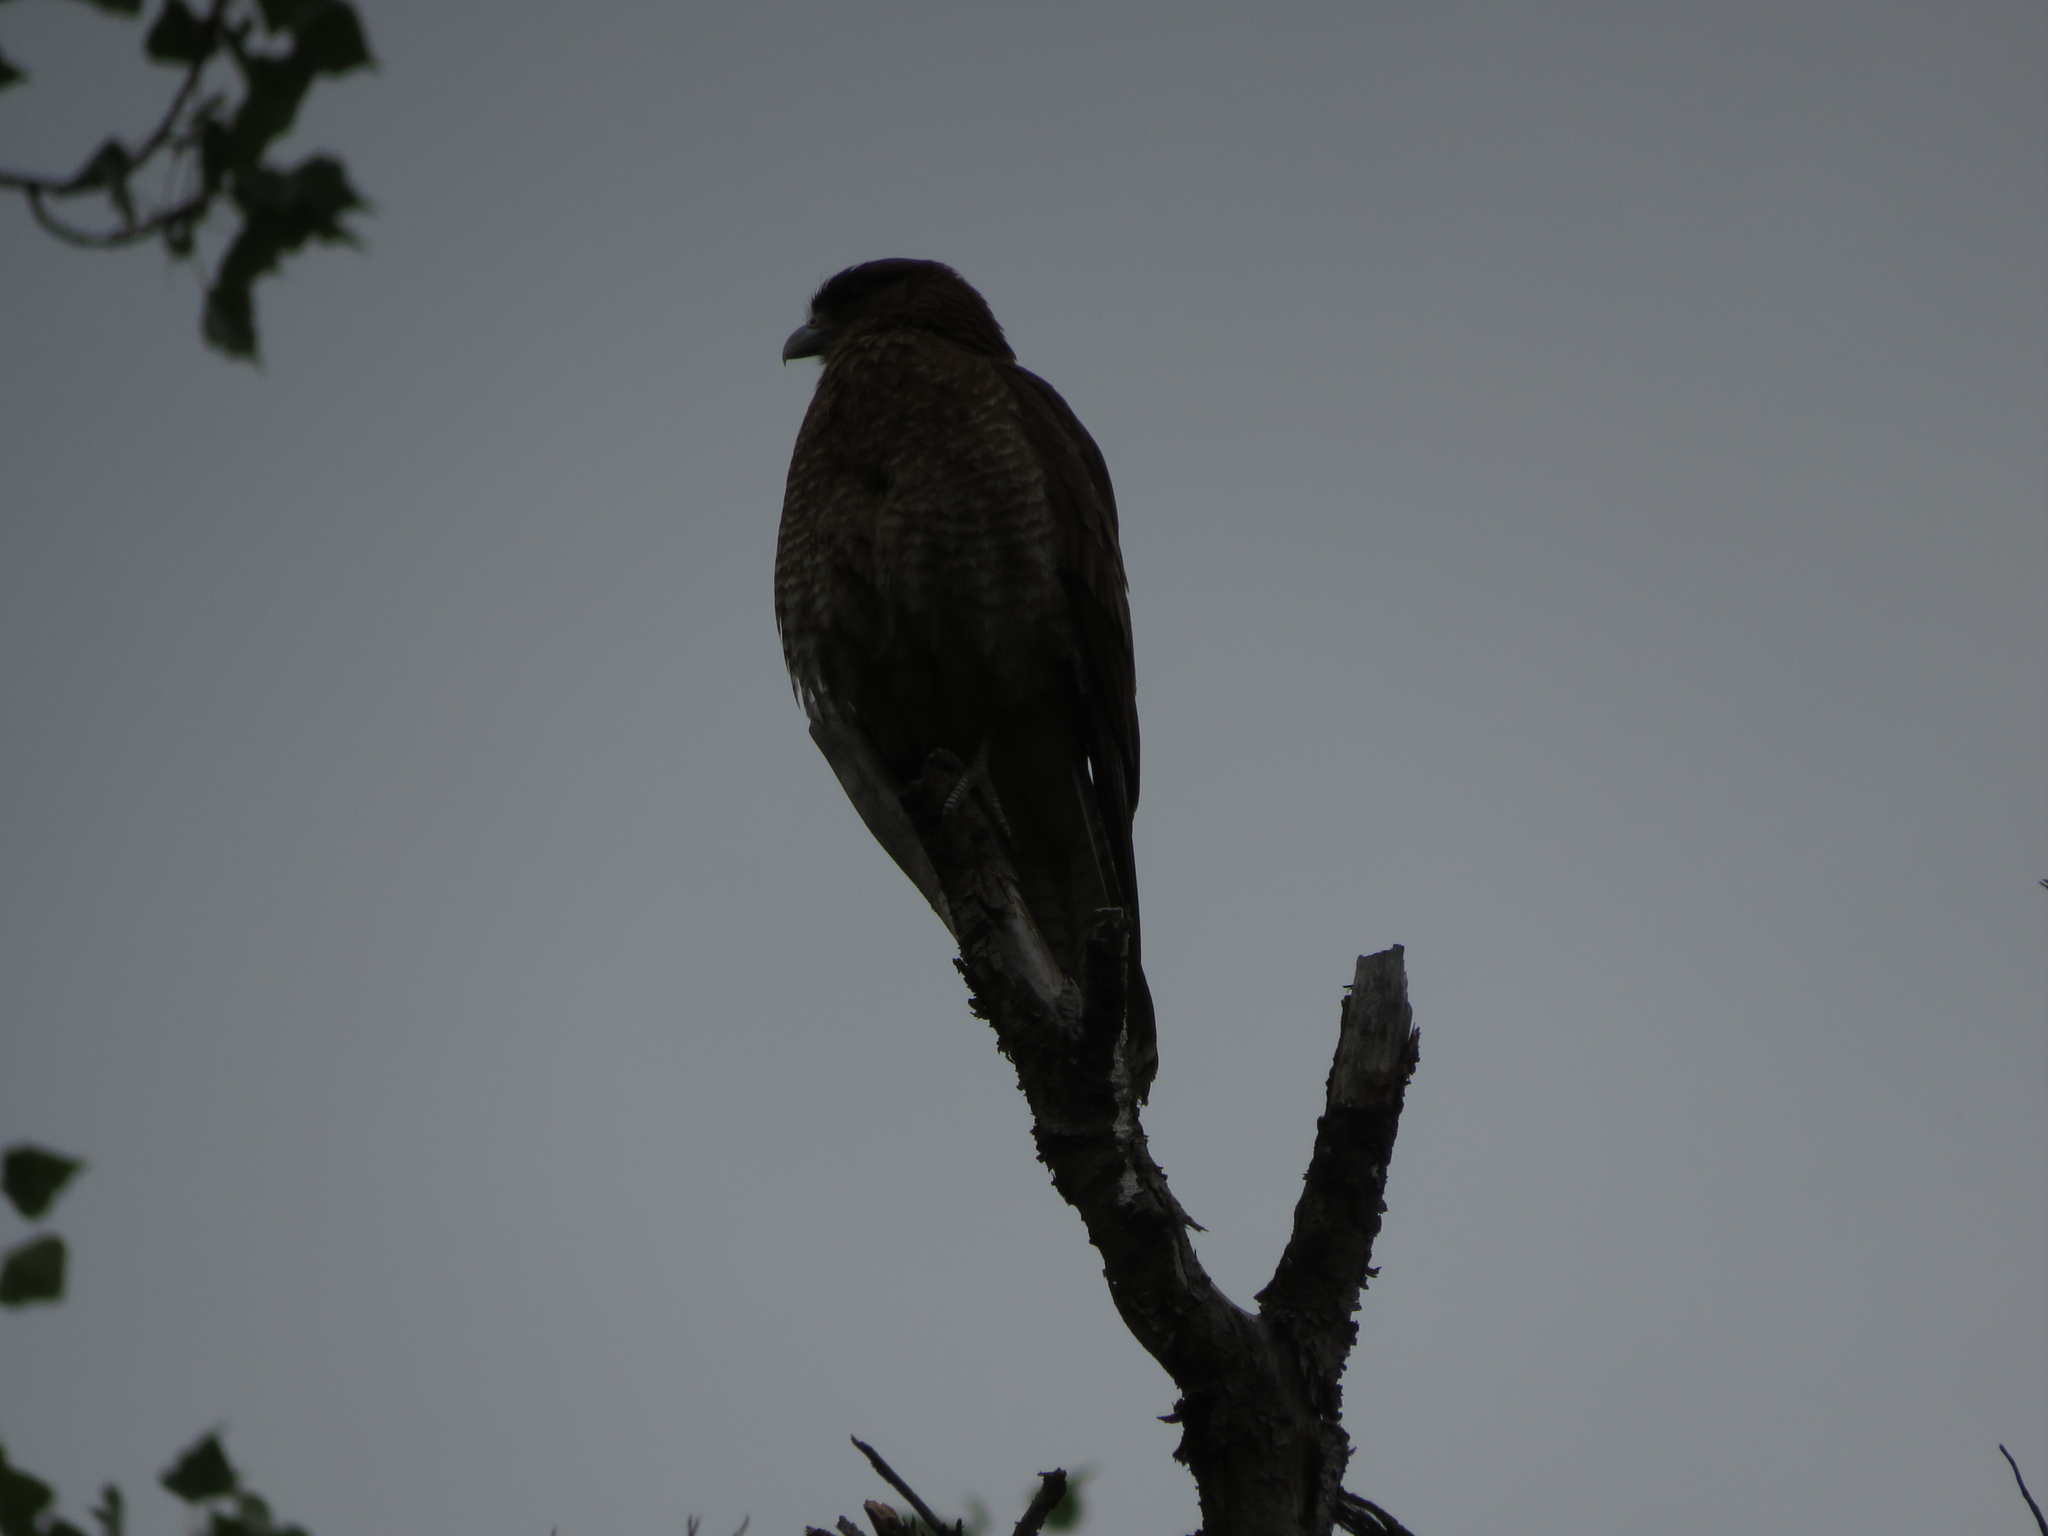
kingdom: Animalia
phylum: Chordata
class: Aves
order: Falconiformes
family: Falconidae
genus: Daptrius
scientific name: Daptrius
